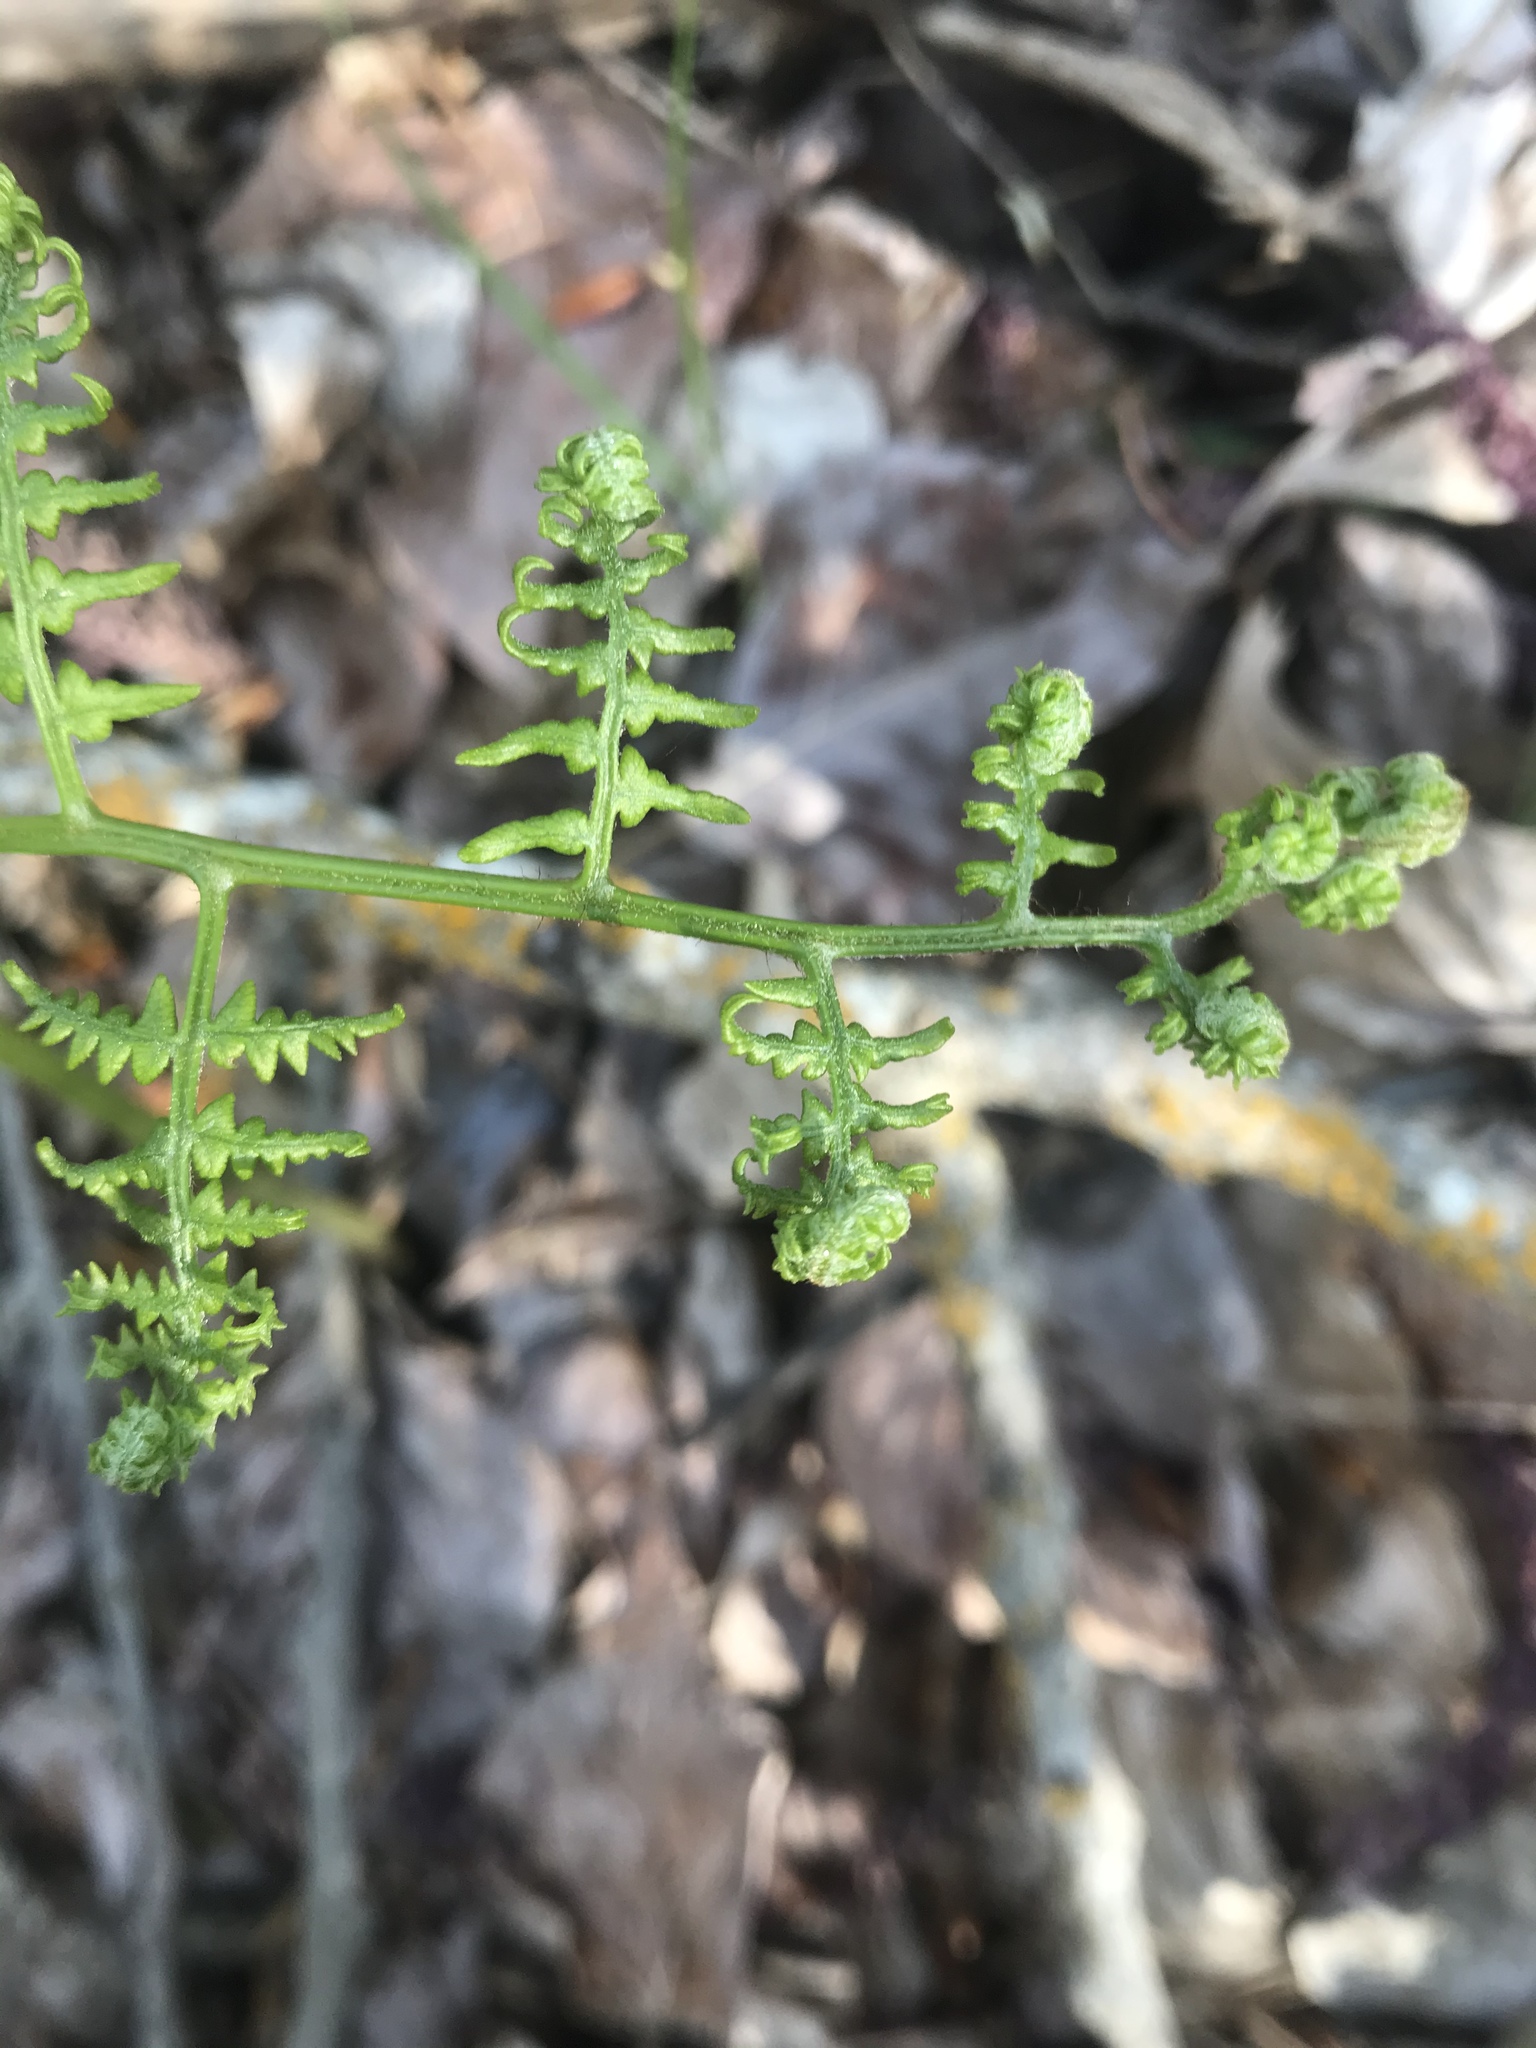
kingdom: Plantae
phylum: Tracheophyta
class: Polypodiopsida
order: Polypodiales
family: Dennstaedtiaceae
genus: Pteridium
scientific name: Pteridium aquilinum
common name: Bracken
